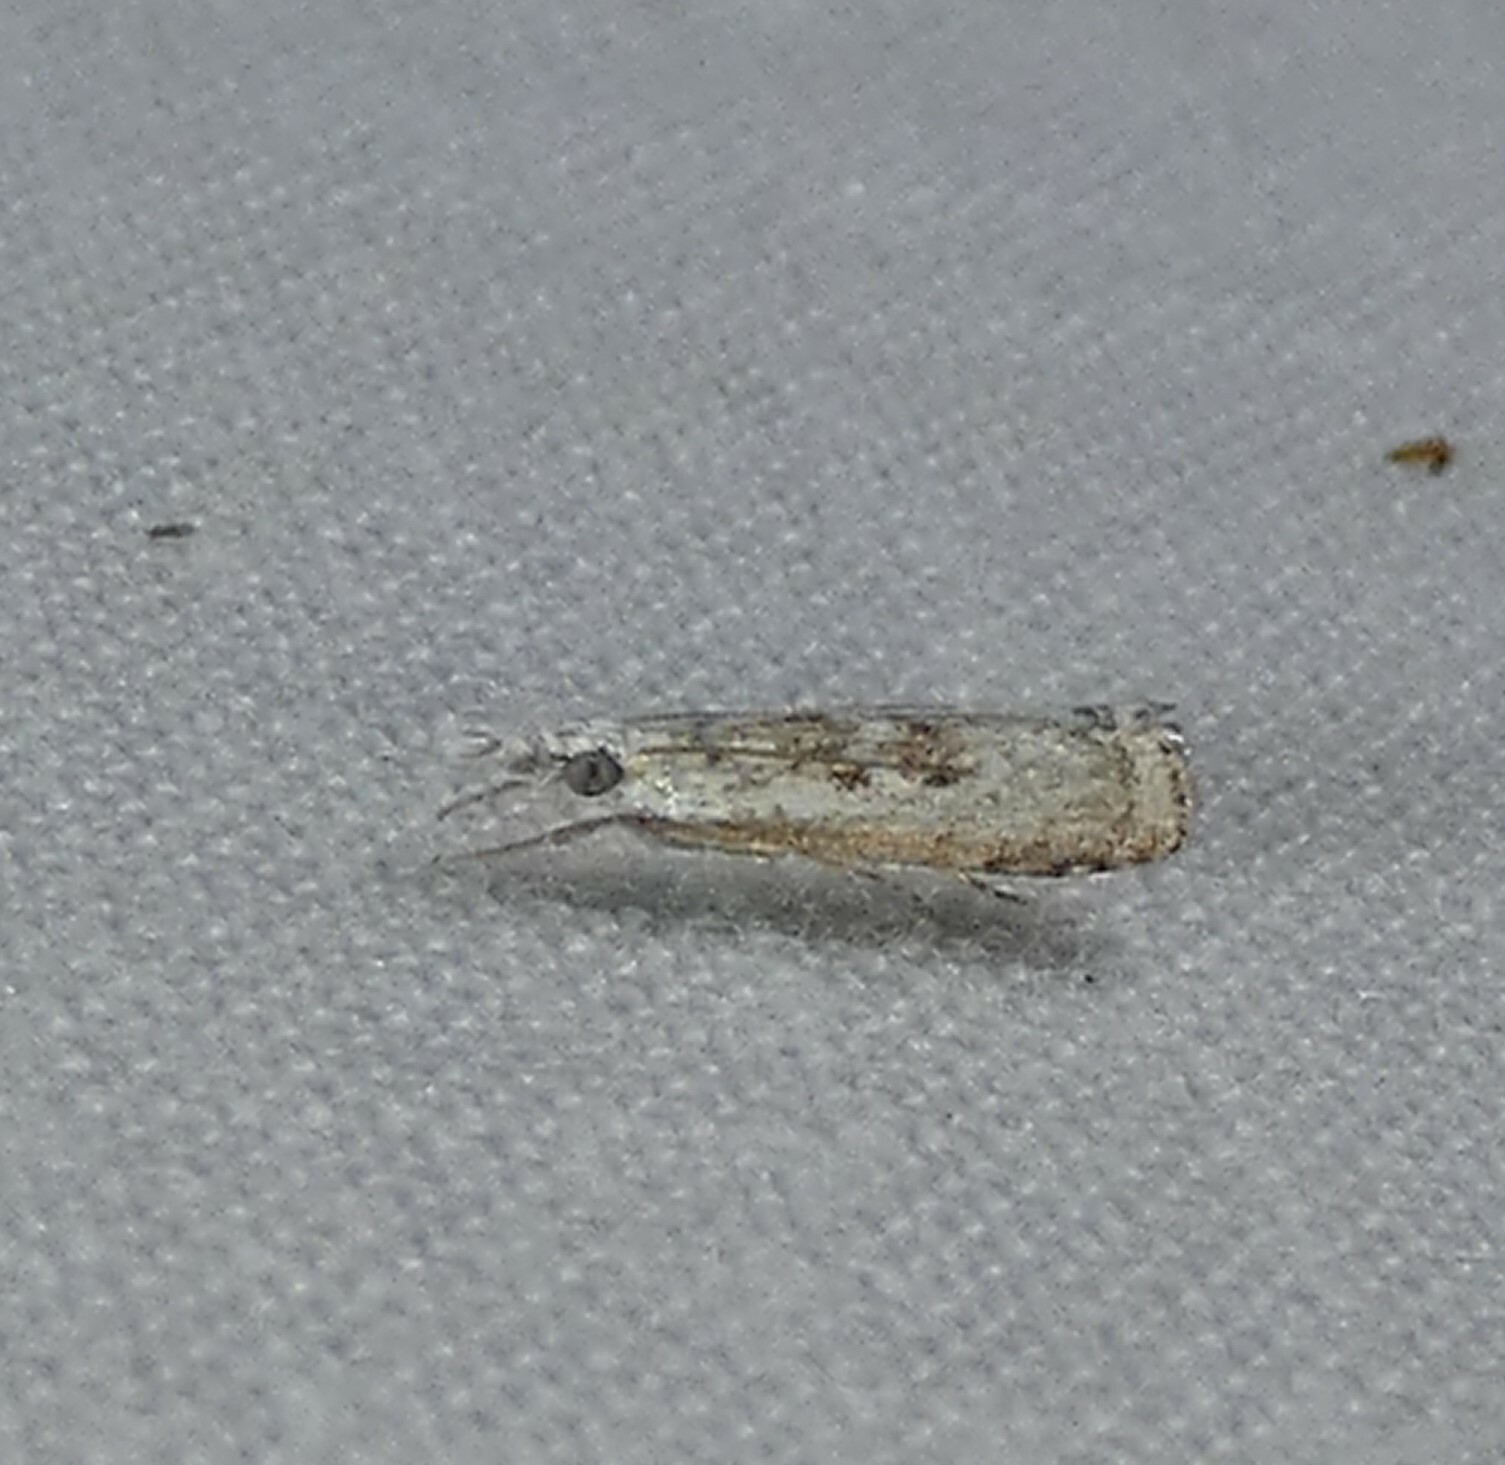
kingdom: Animalia
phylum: Arthropoda
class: Insecta
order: Lepidoptera
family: Crambidae
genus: Microcrambus
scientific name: Microcrambus immunellus
